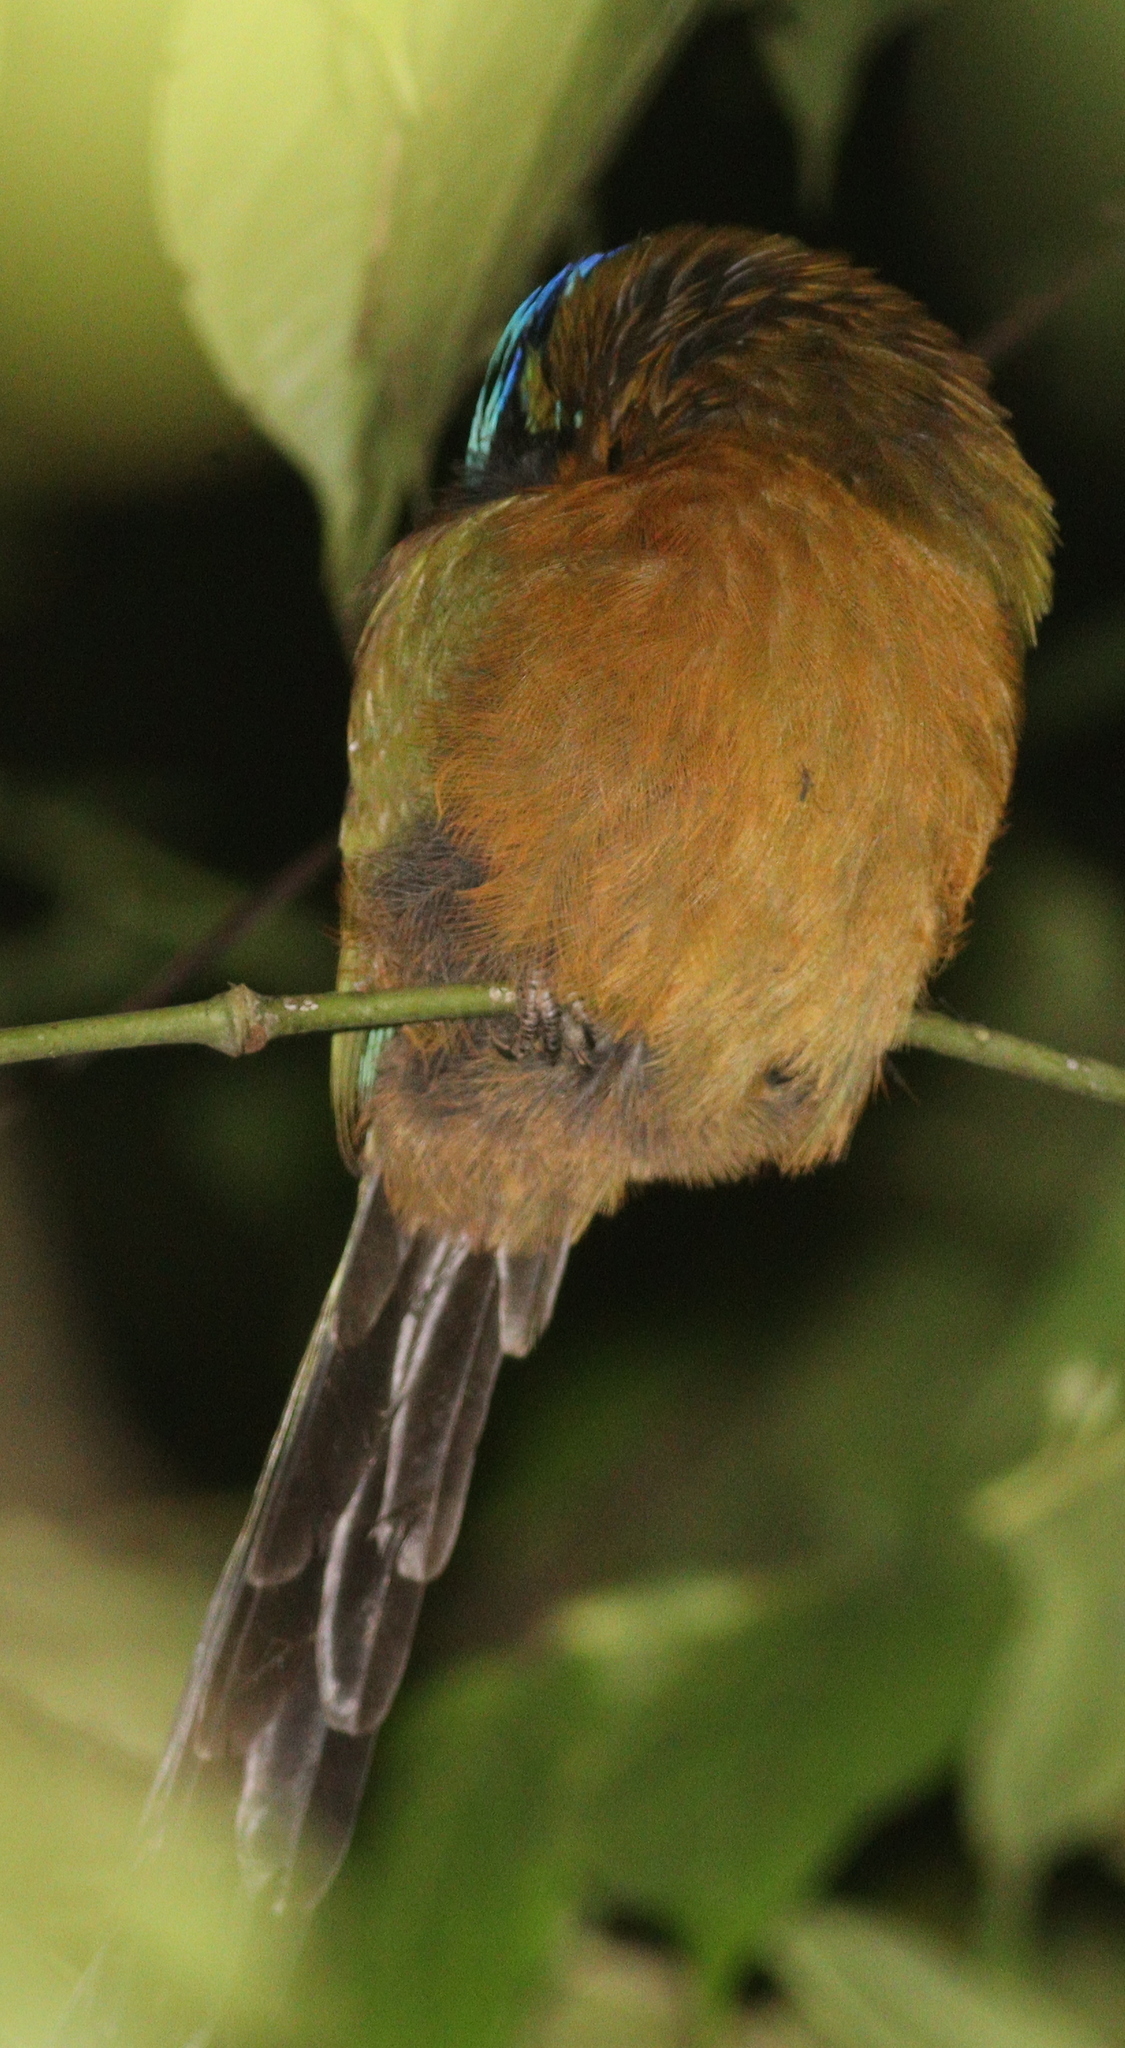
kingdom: Animalia
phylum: Chordata
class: Aves
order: Coraciiformes
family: Momotidae
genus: Momotus
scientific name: Momotus lessonii
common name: Lesson's motmot
